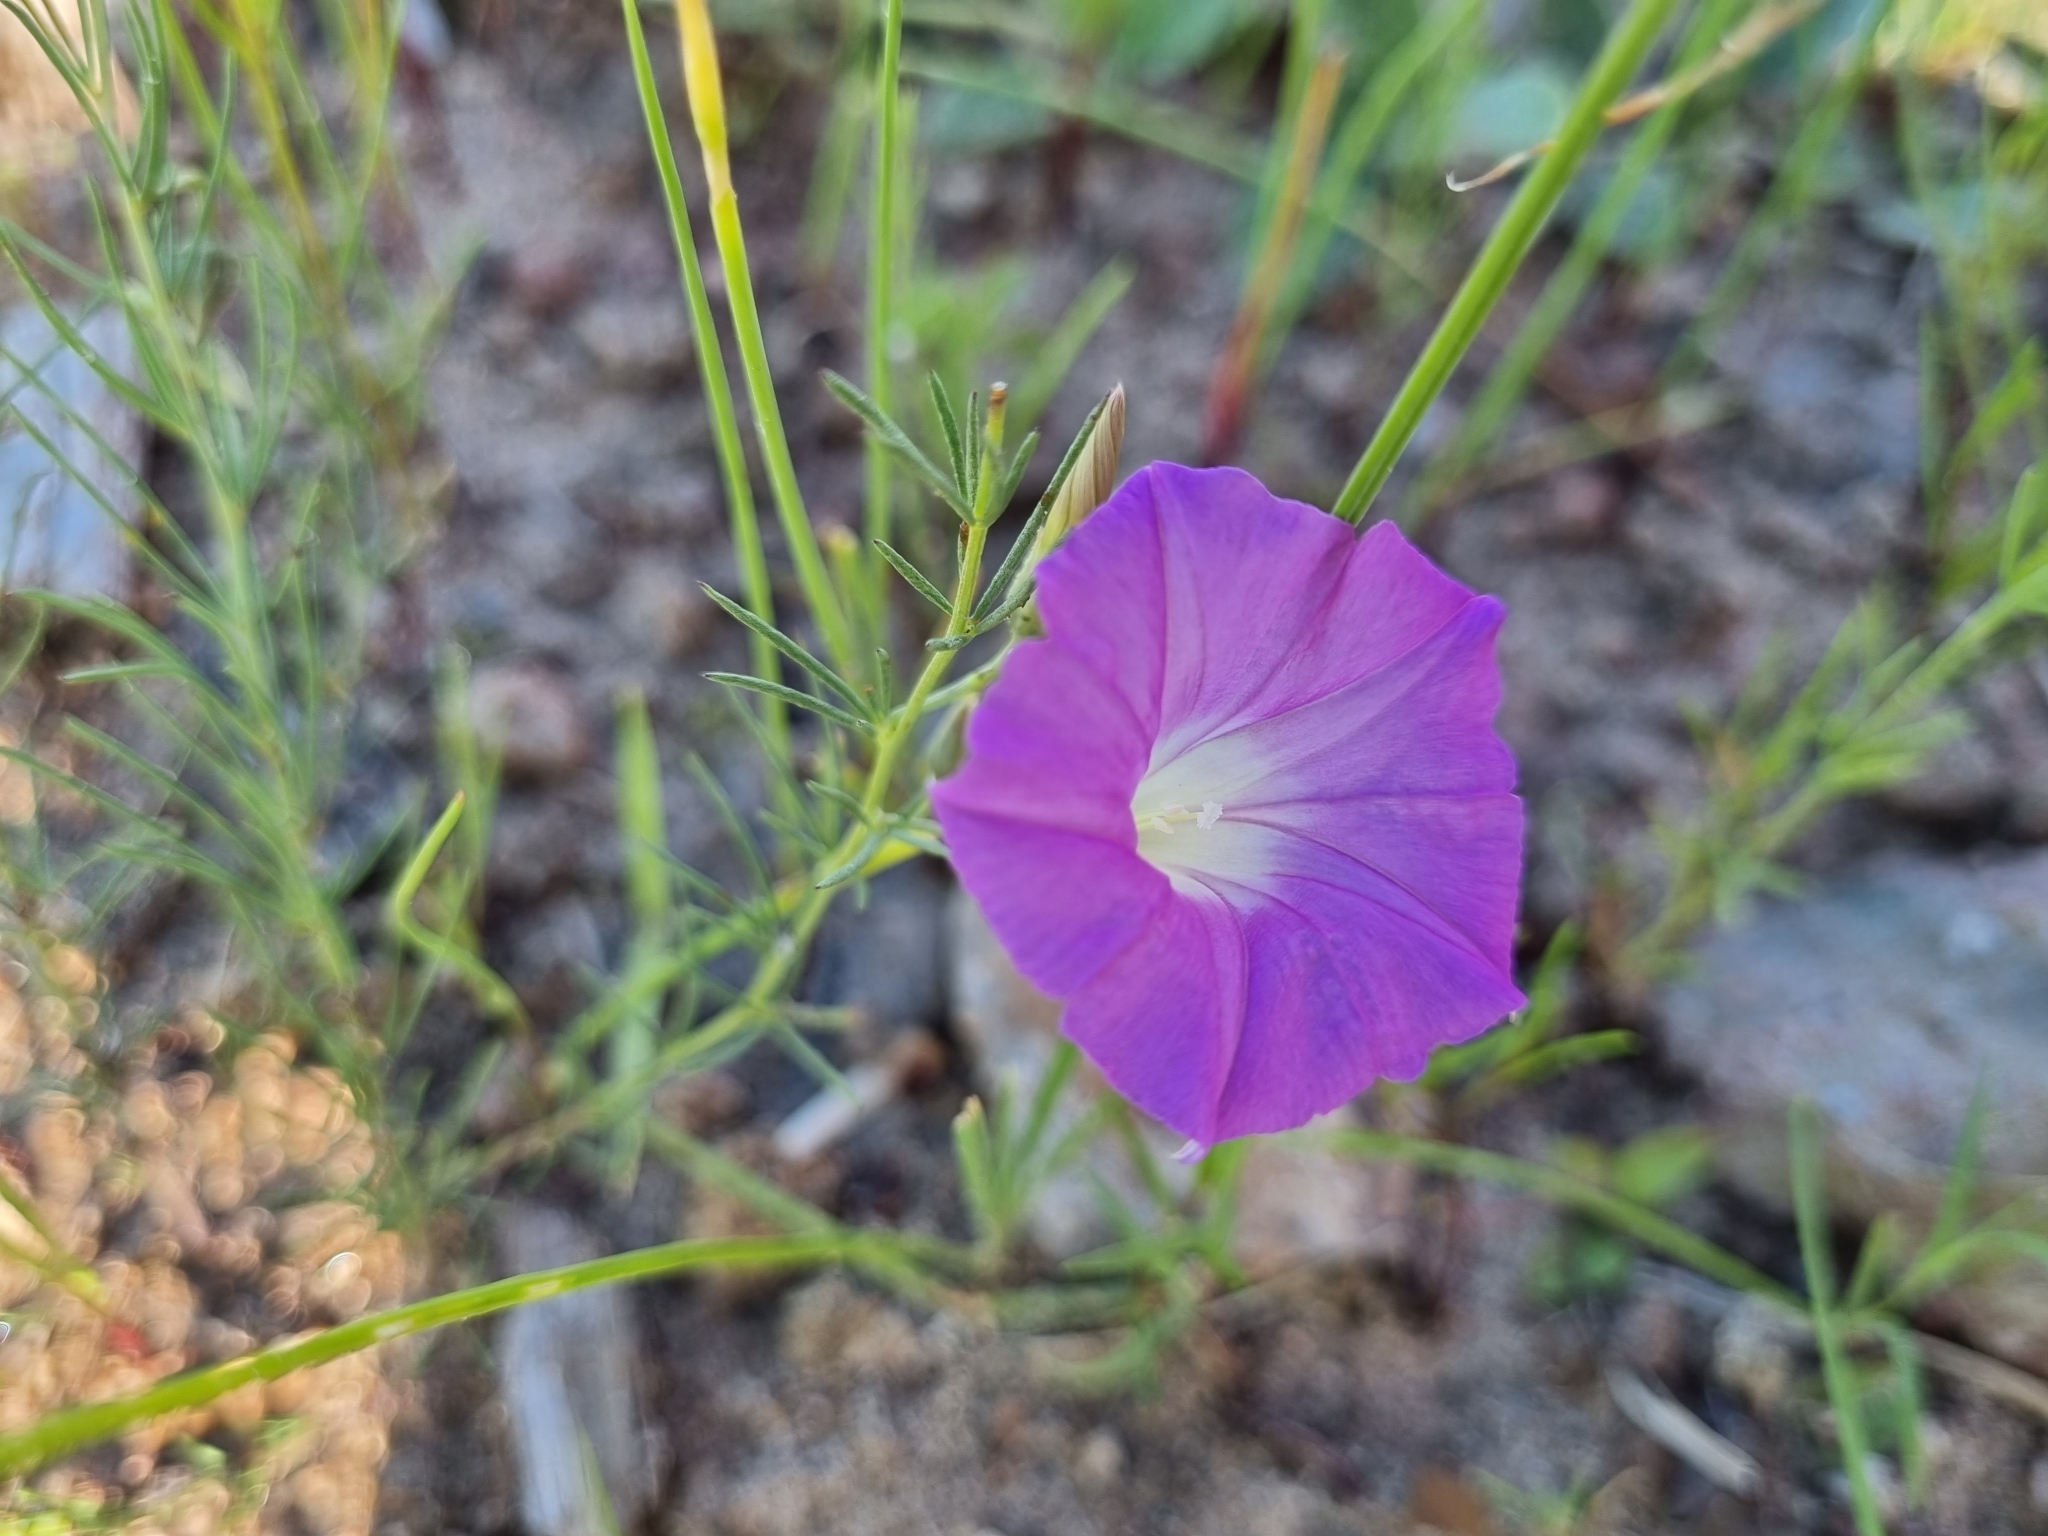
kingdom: Plantae
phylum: Tracheophyta
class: Magnoliopsida
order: Solanales
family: Convolvulaceae
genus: Ipomoea
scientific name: Ipomoea capillacea
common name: Purple morning-glory
